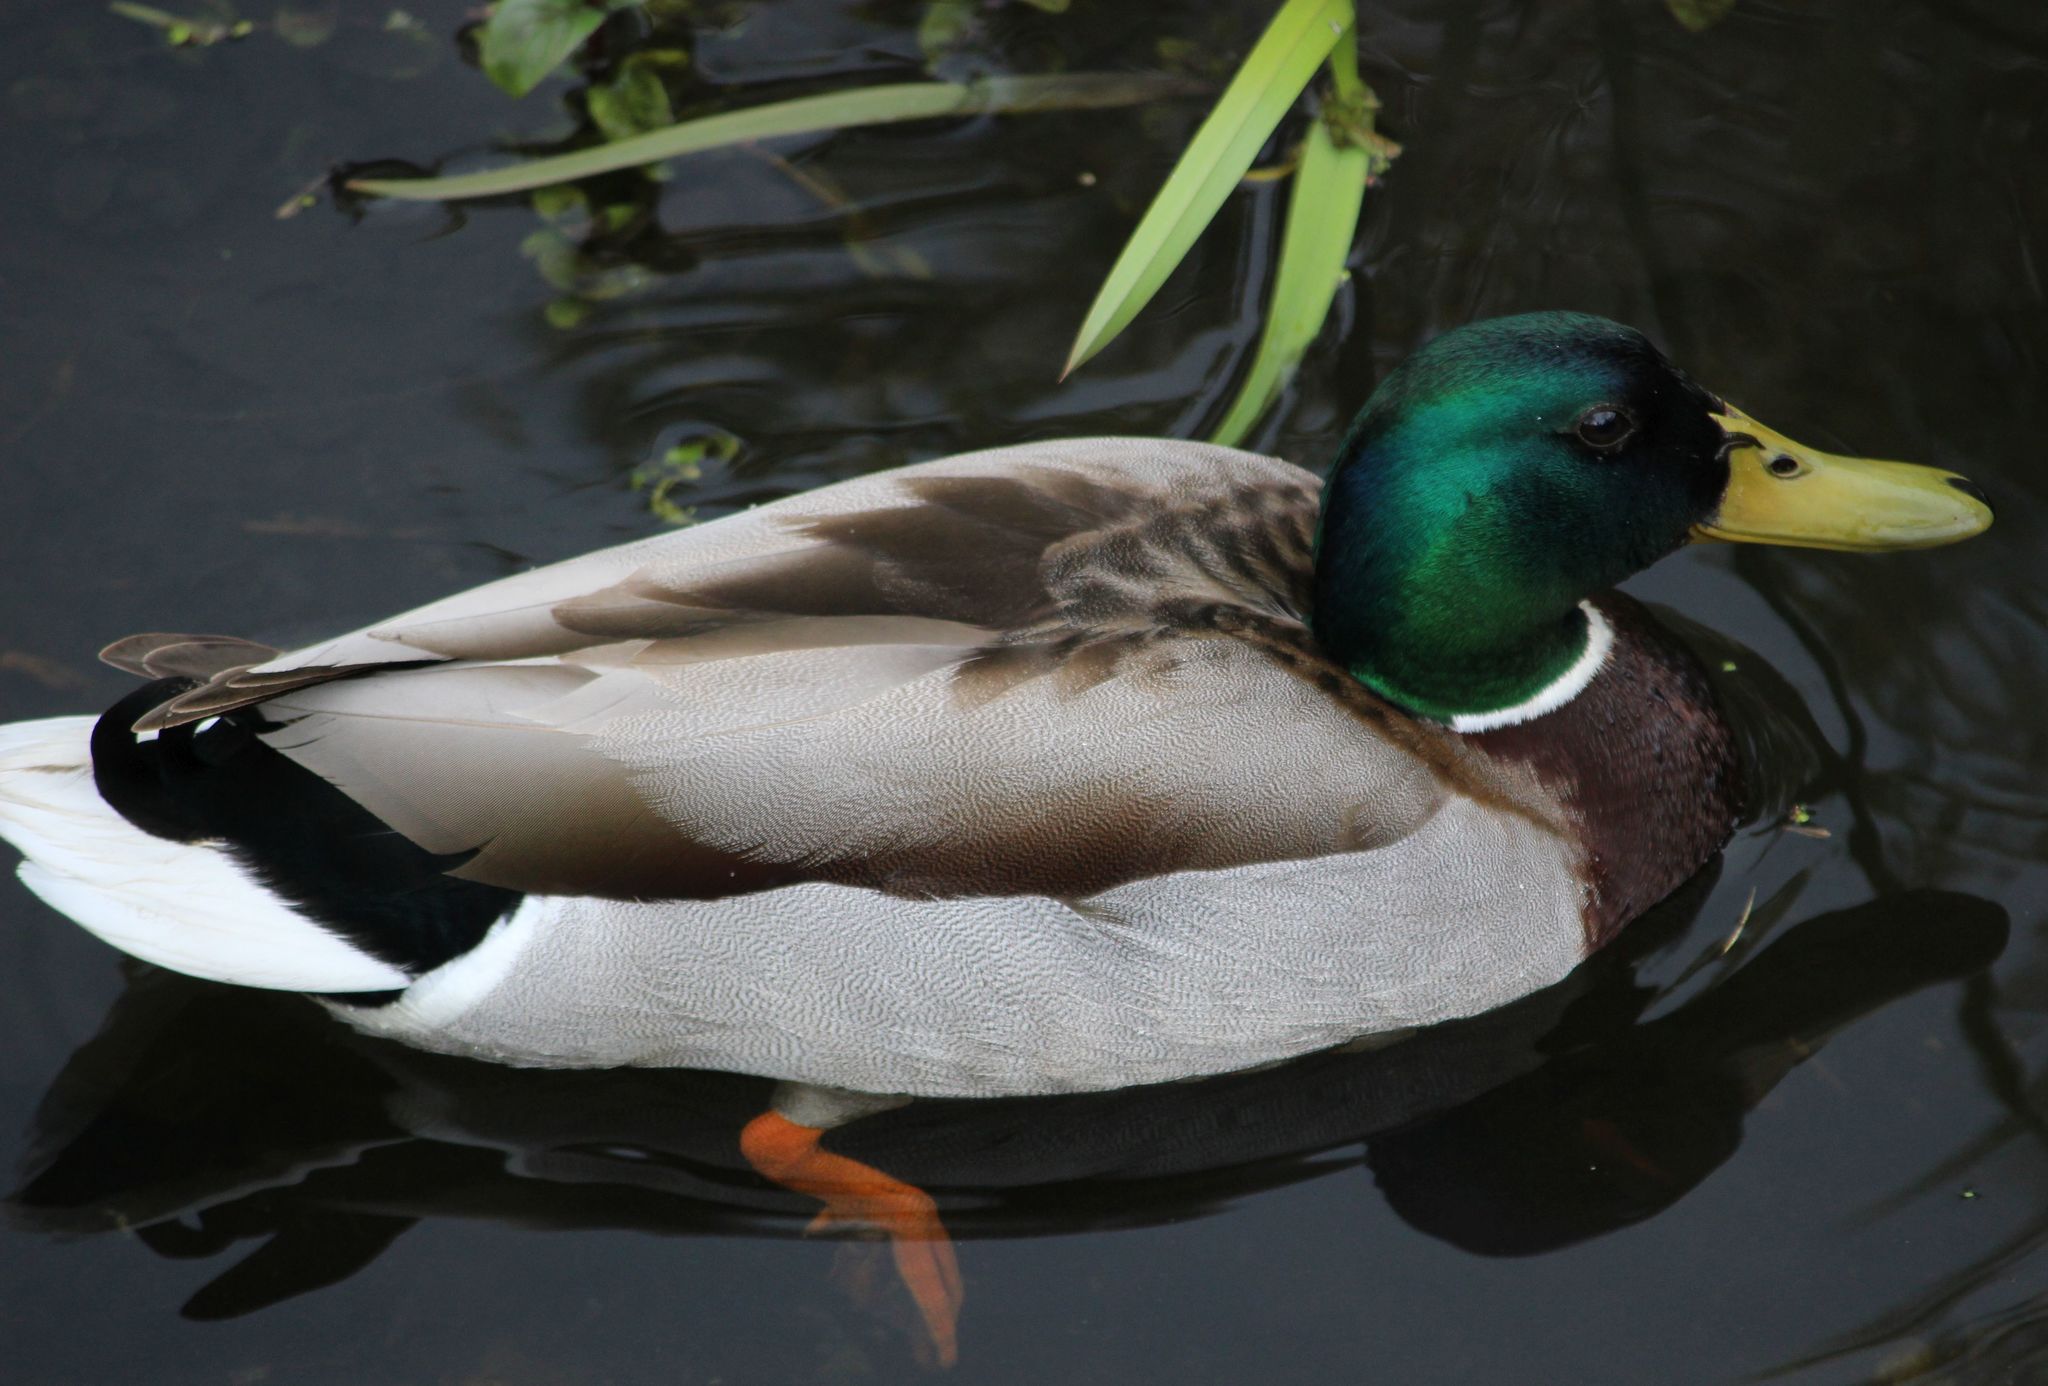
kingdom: Animalia
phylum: Chordata
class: Aves
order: Anseriformes
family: Anatidae
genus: Anas
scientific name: Anas platyrhynchos
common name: Mallard
